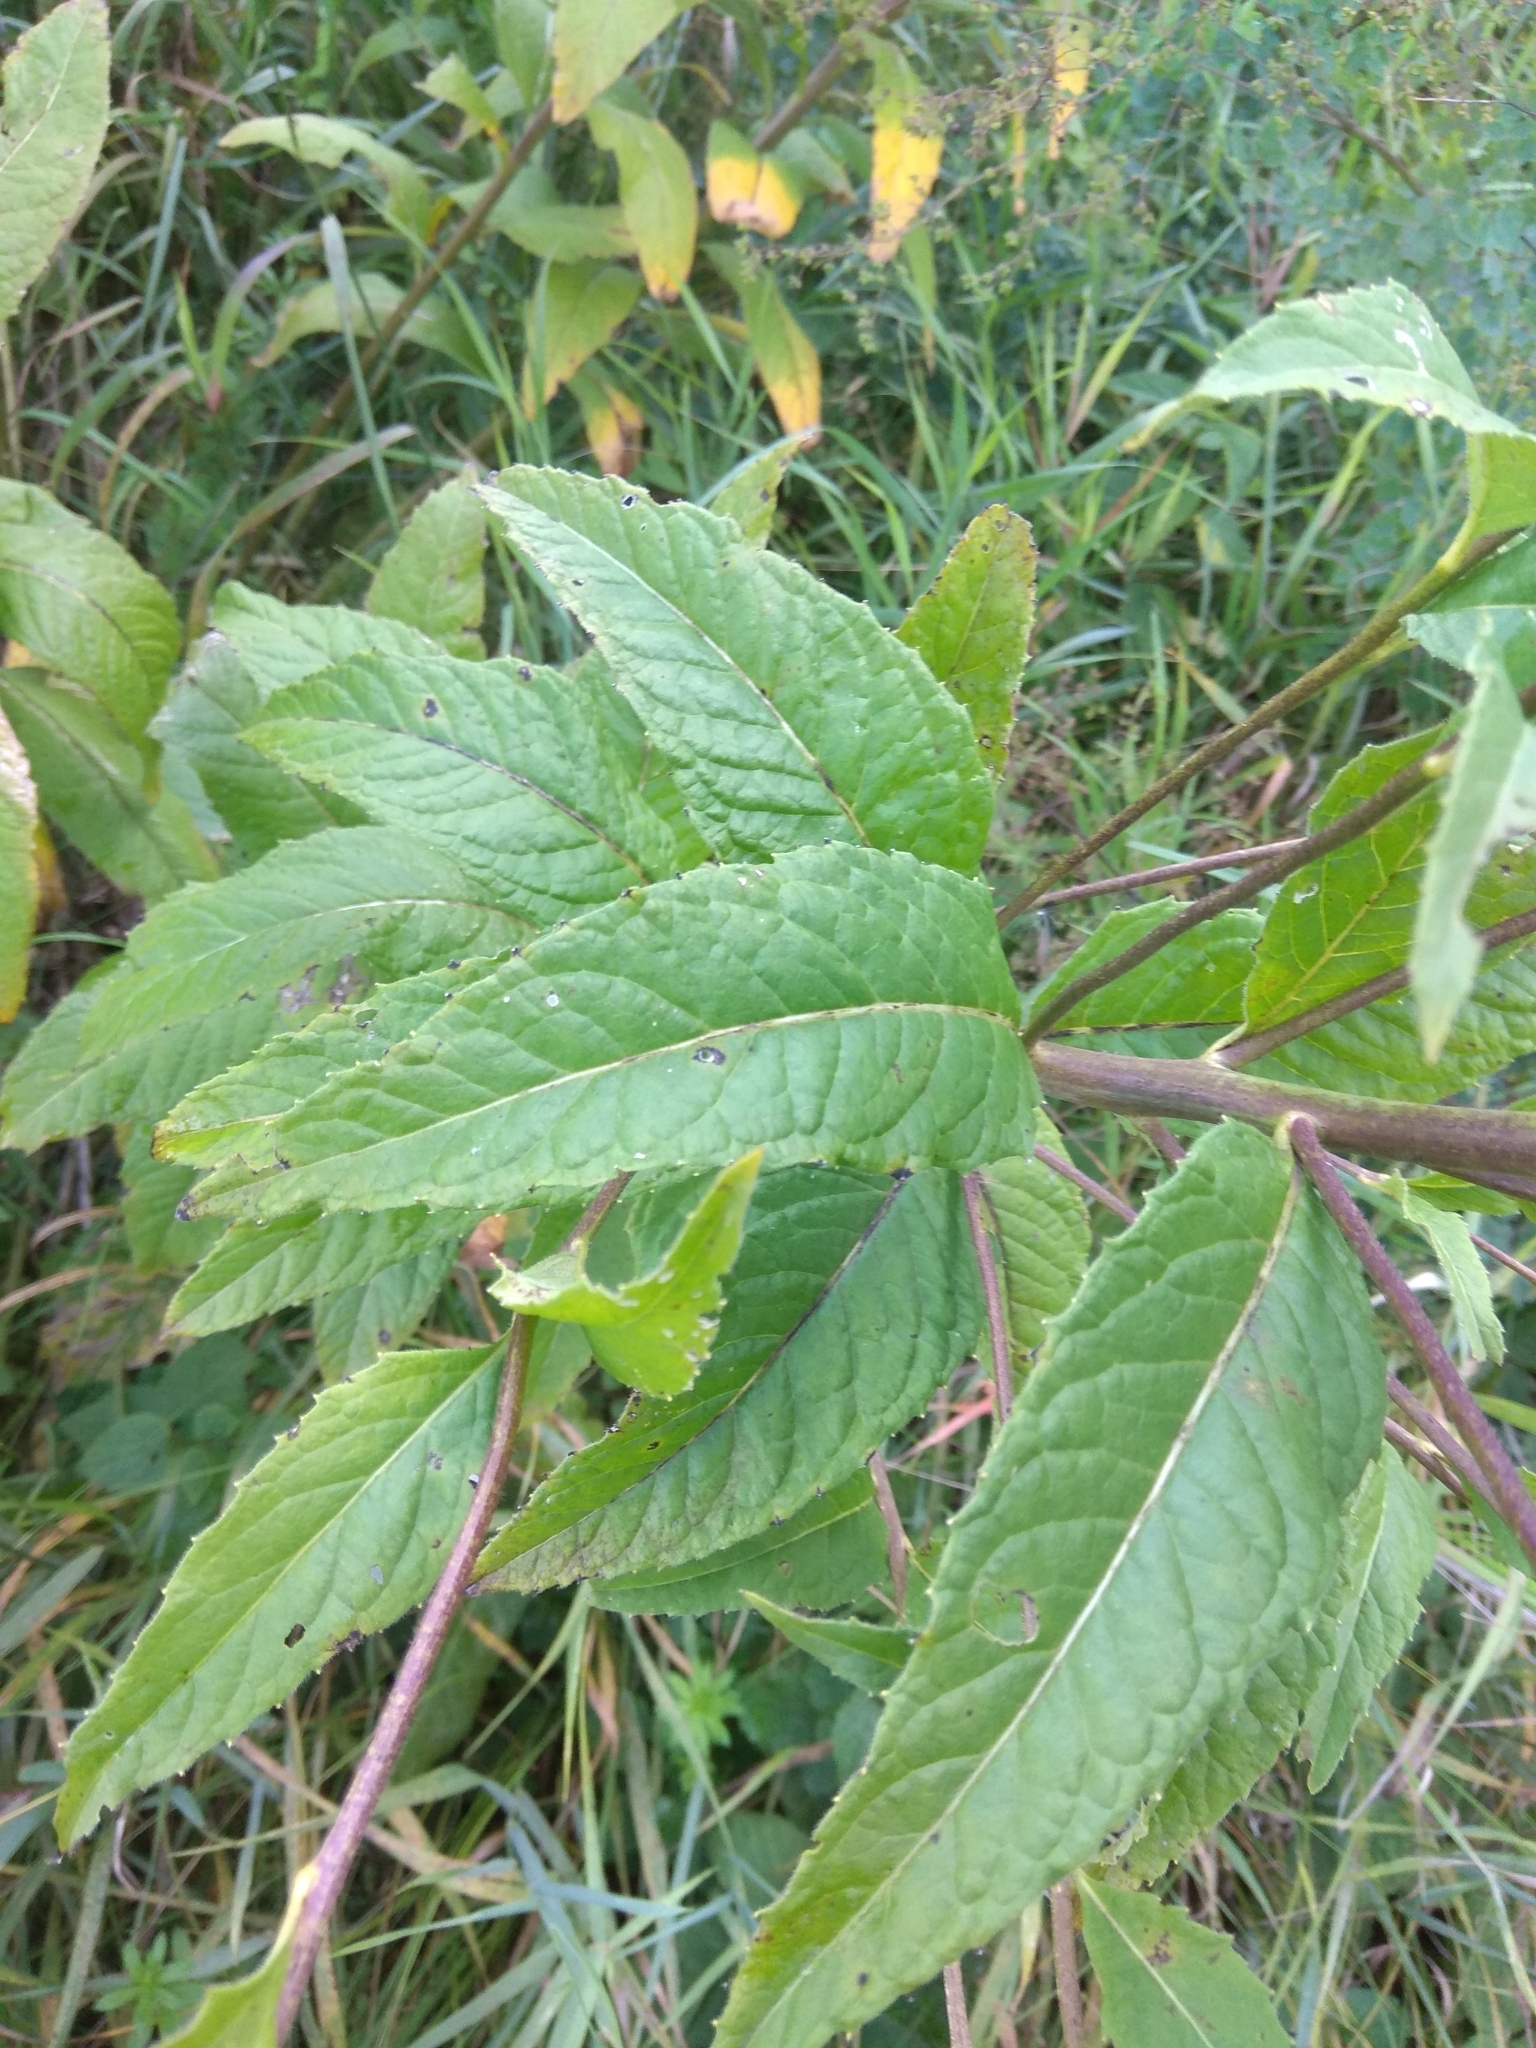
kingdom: Plantae
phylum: Tracheophyta
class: Magnoliopsida
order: Brassicales
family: Brassicaceae
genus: Sisymbrium
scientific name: Sisymbrium strictissimum
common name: Perennial rocket
